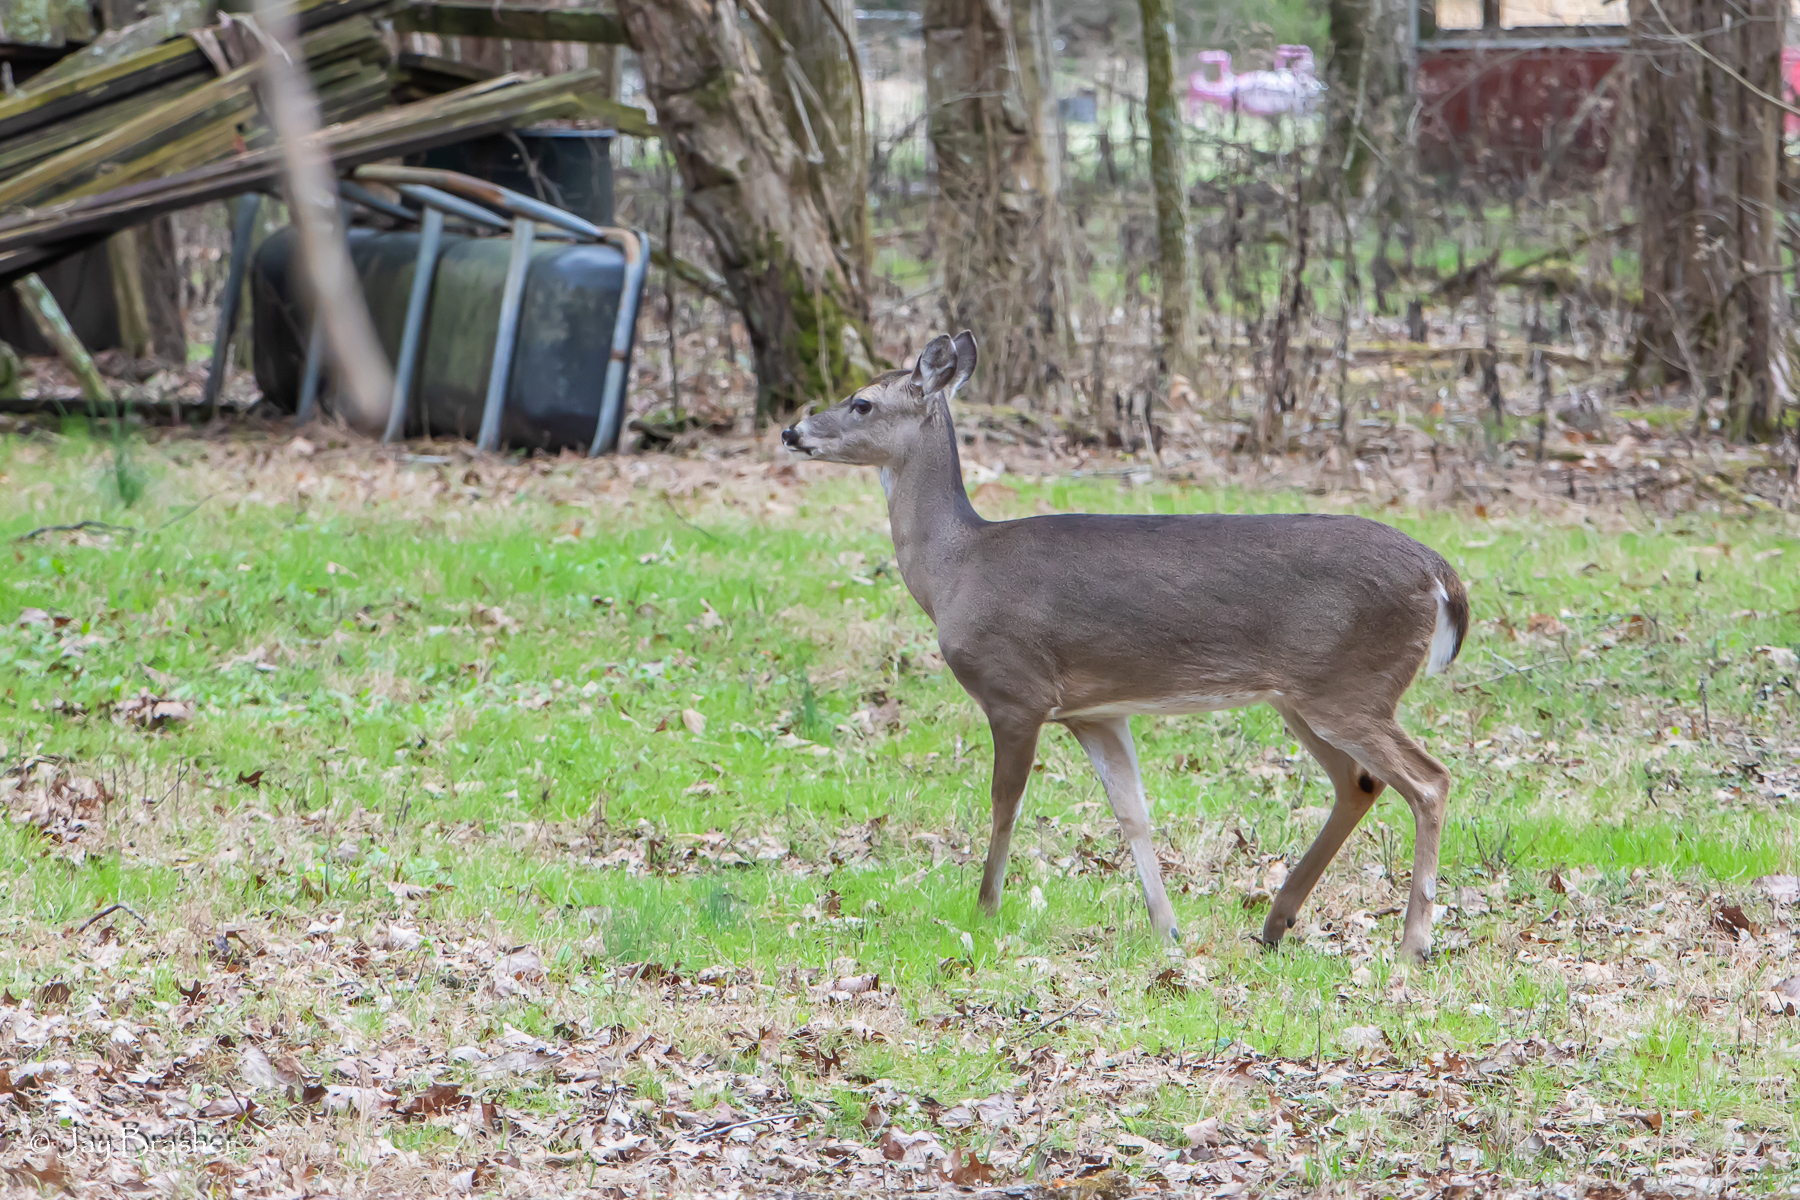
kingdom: Animalia
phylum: Chordata
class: Mammalia
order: Artiodactyla
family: Cervidae
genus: Odocoileus
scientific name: Odocoileus virginianus
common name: White-tailed deer
